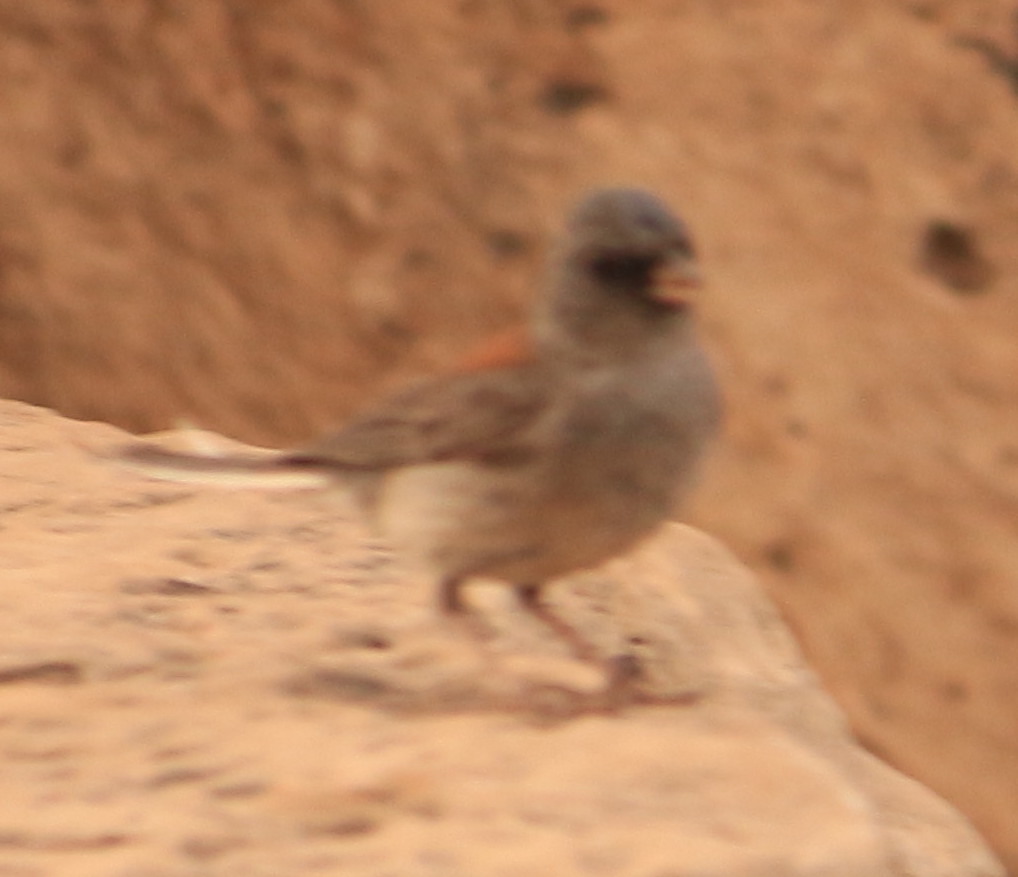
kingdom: Animalia
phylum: Chordata
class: Aves
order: Passeriformes
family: Passerellidae
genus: Junco
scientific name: Junco hyemalis
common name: Dark-eyed junco
